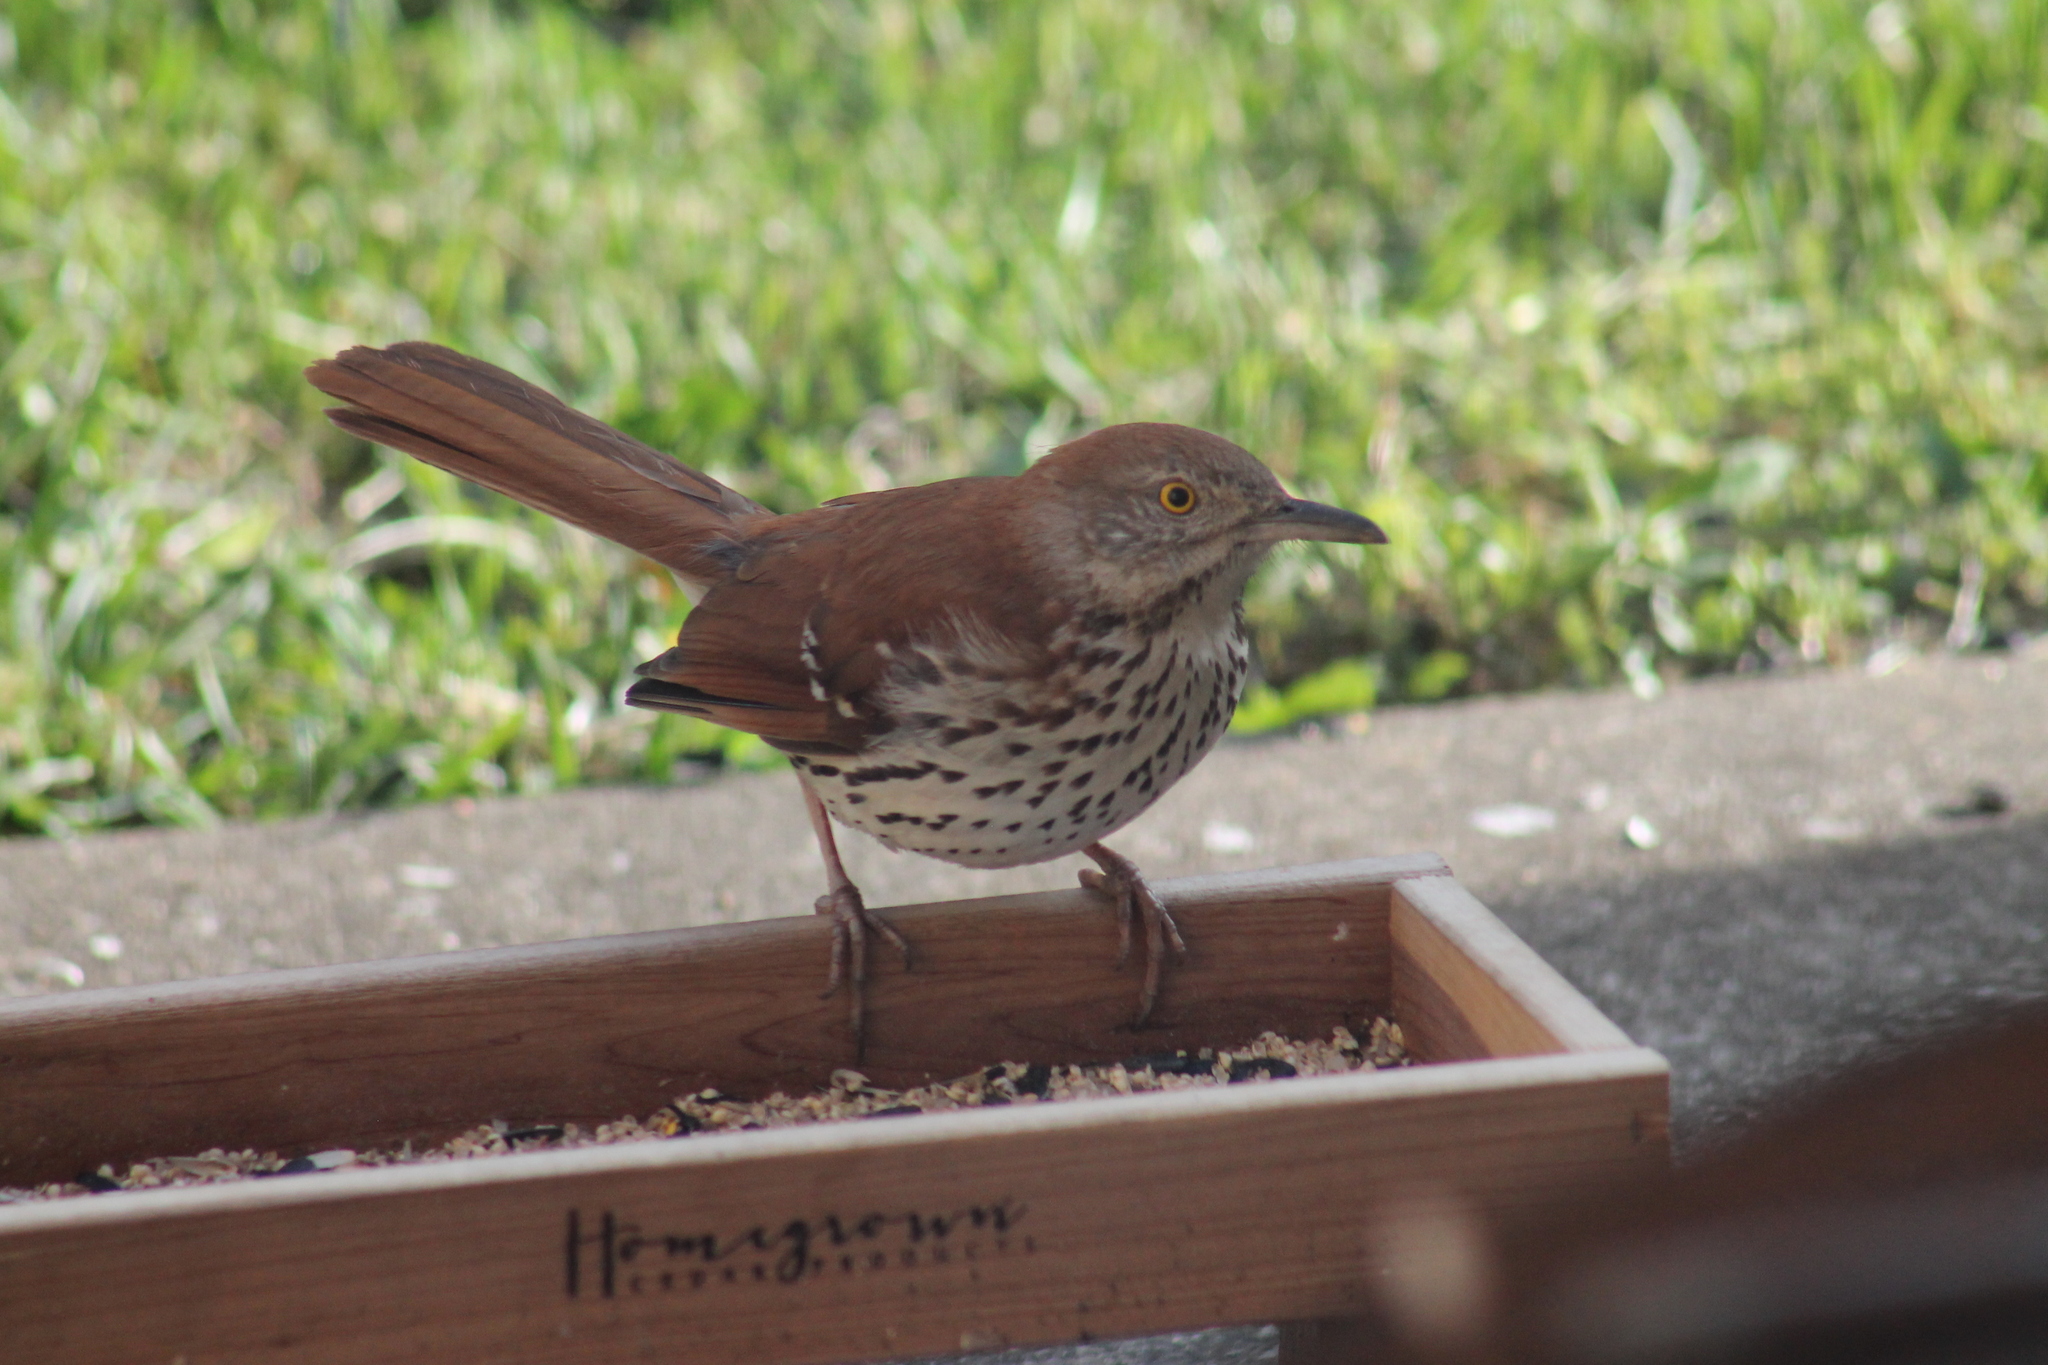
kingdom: Animalia
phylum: Chordata
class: Aves
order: Passeriformes
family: Mimidae
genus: Toxostoma
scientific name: Toxostoma rufum
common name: Brown thrasher
